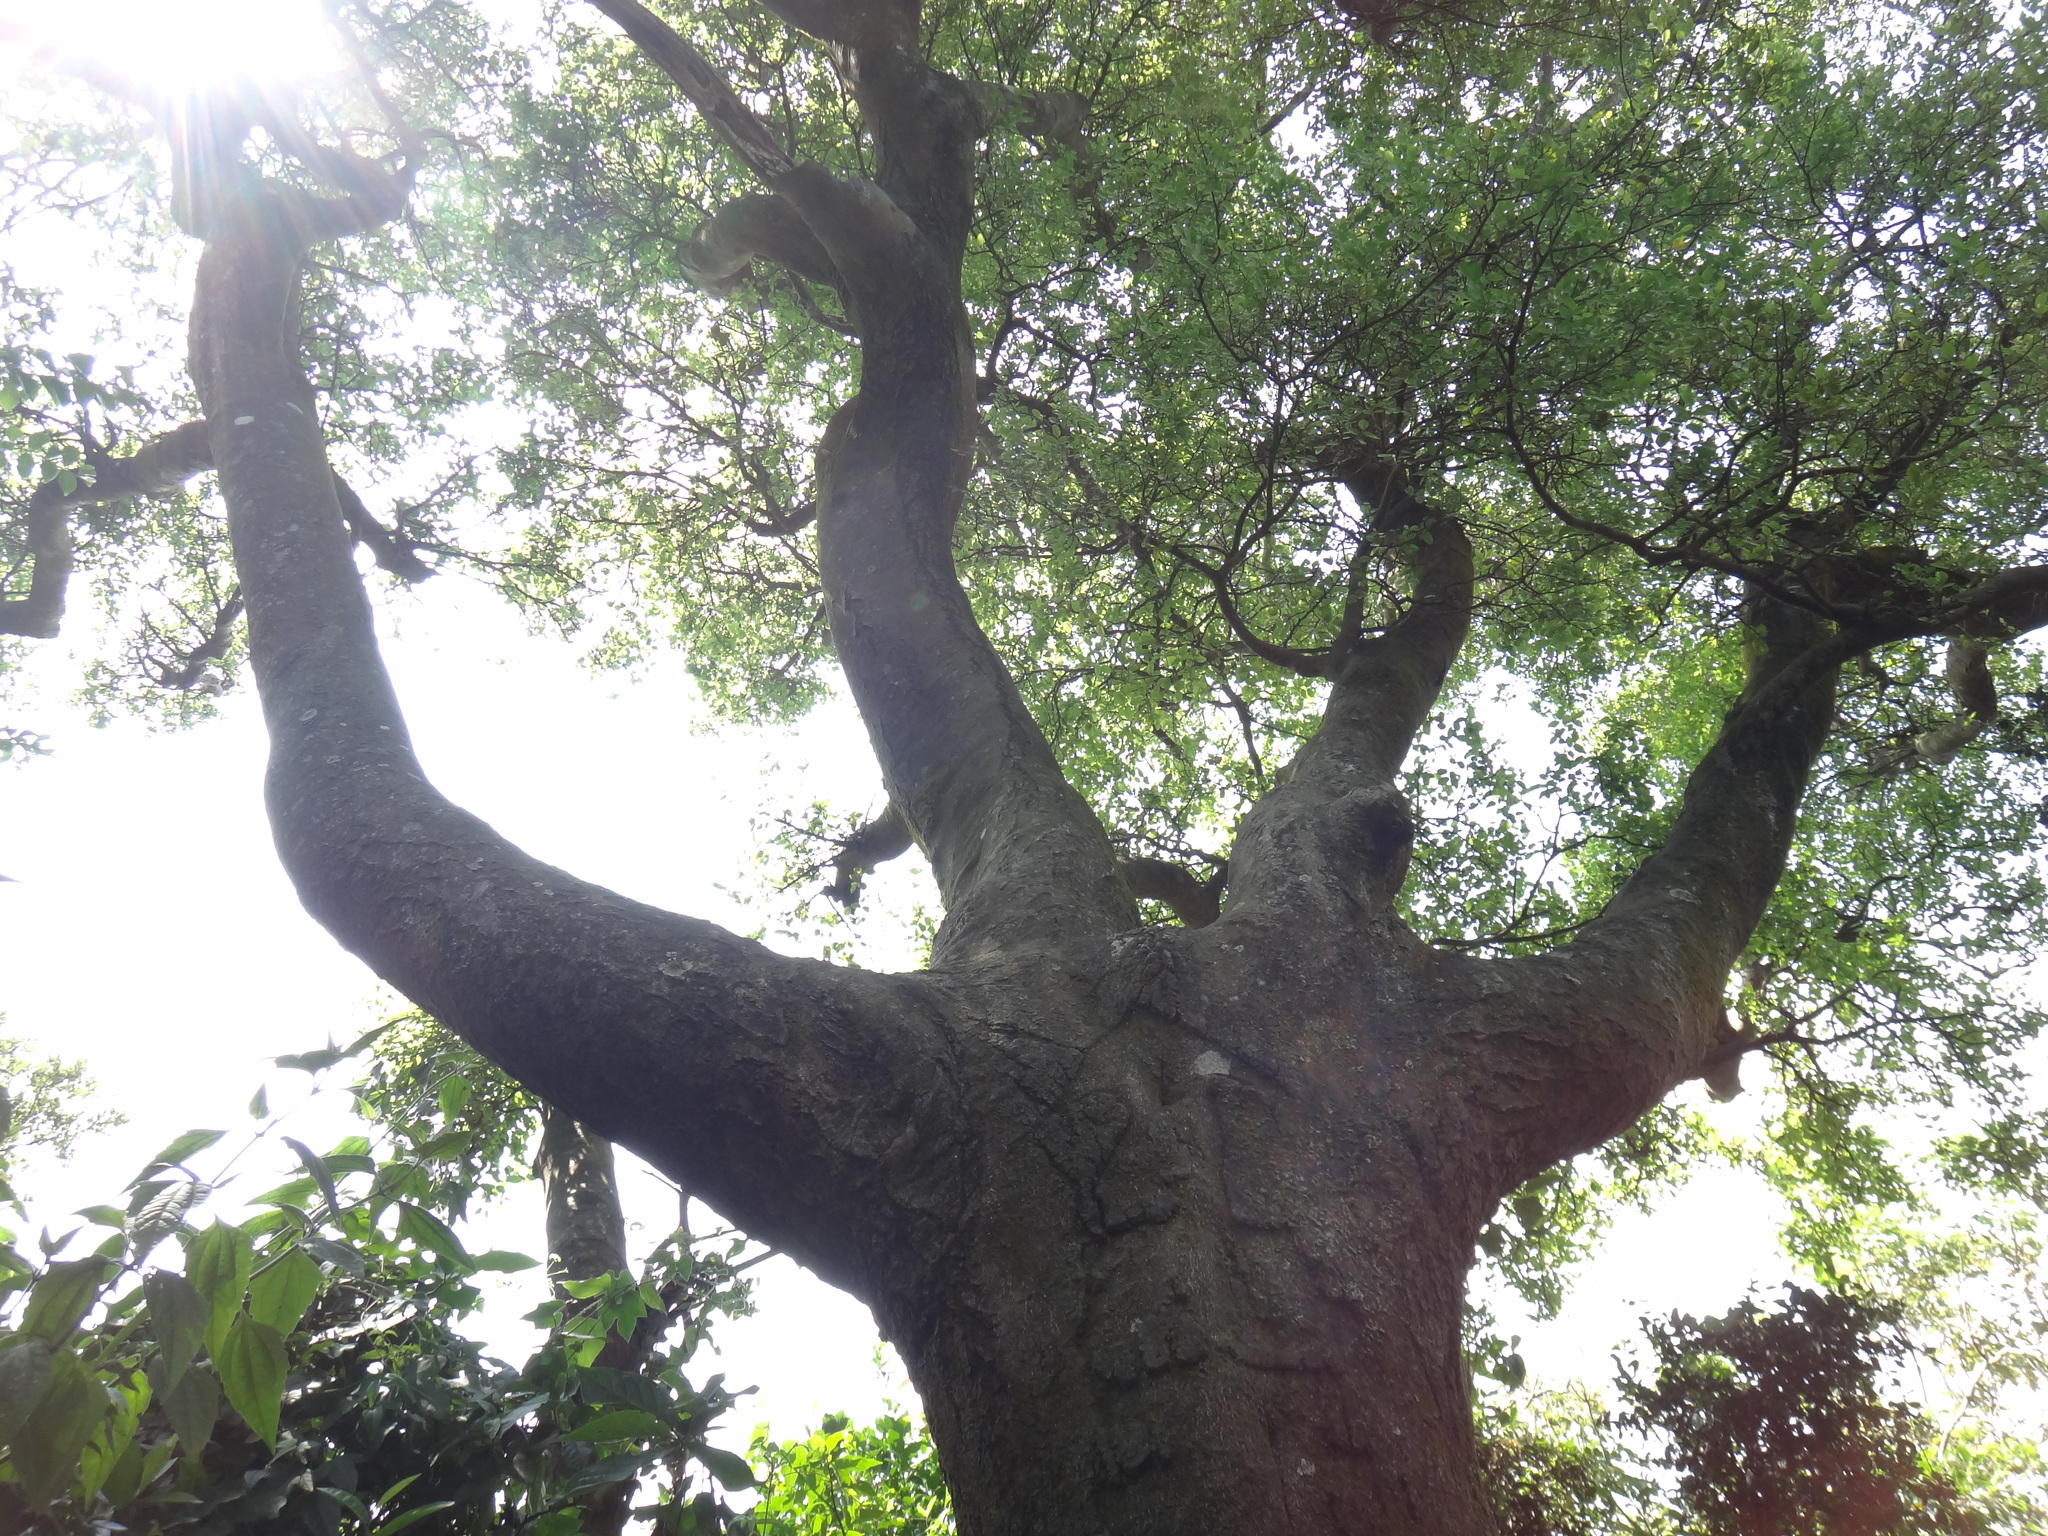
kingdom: Plantae
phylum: Tracheophyta
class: Magnoliopsida
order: Rosales
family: Cannabaceae
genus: Celtis
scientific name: Celtis sinensis
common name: Chinese hackberry
